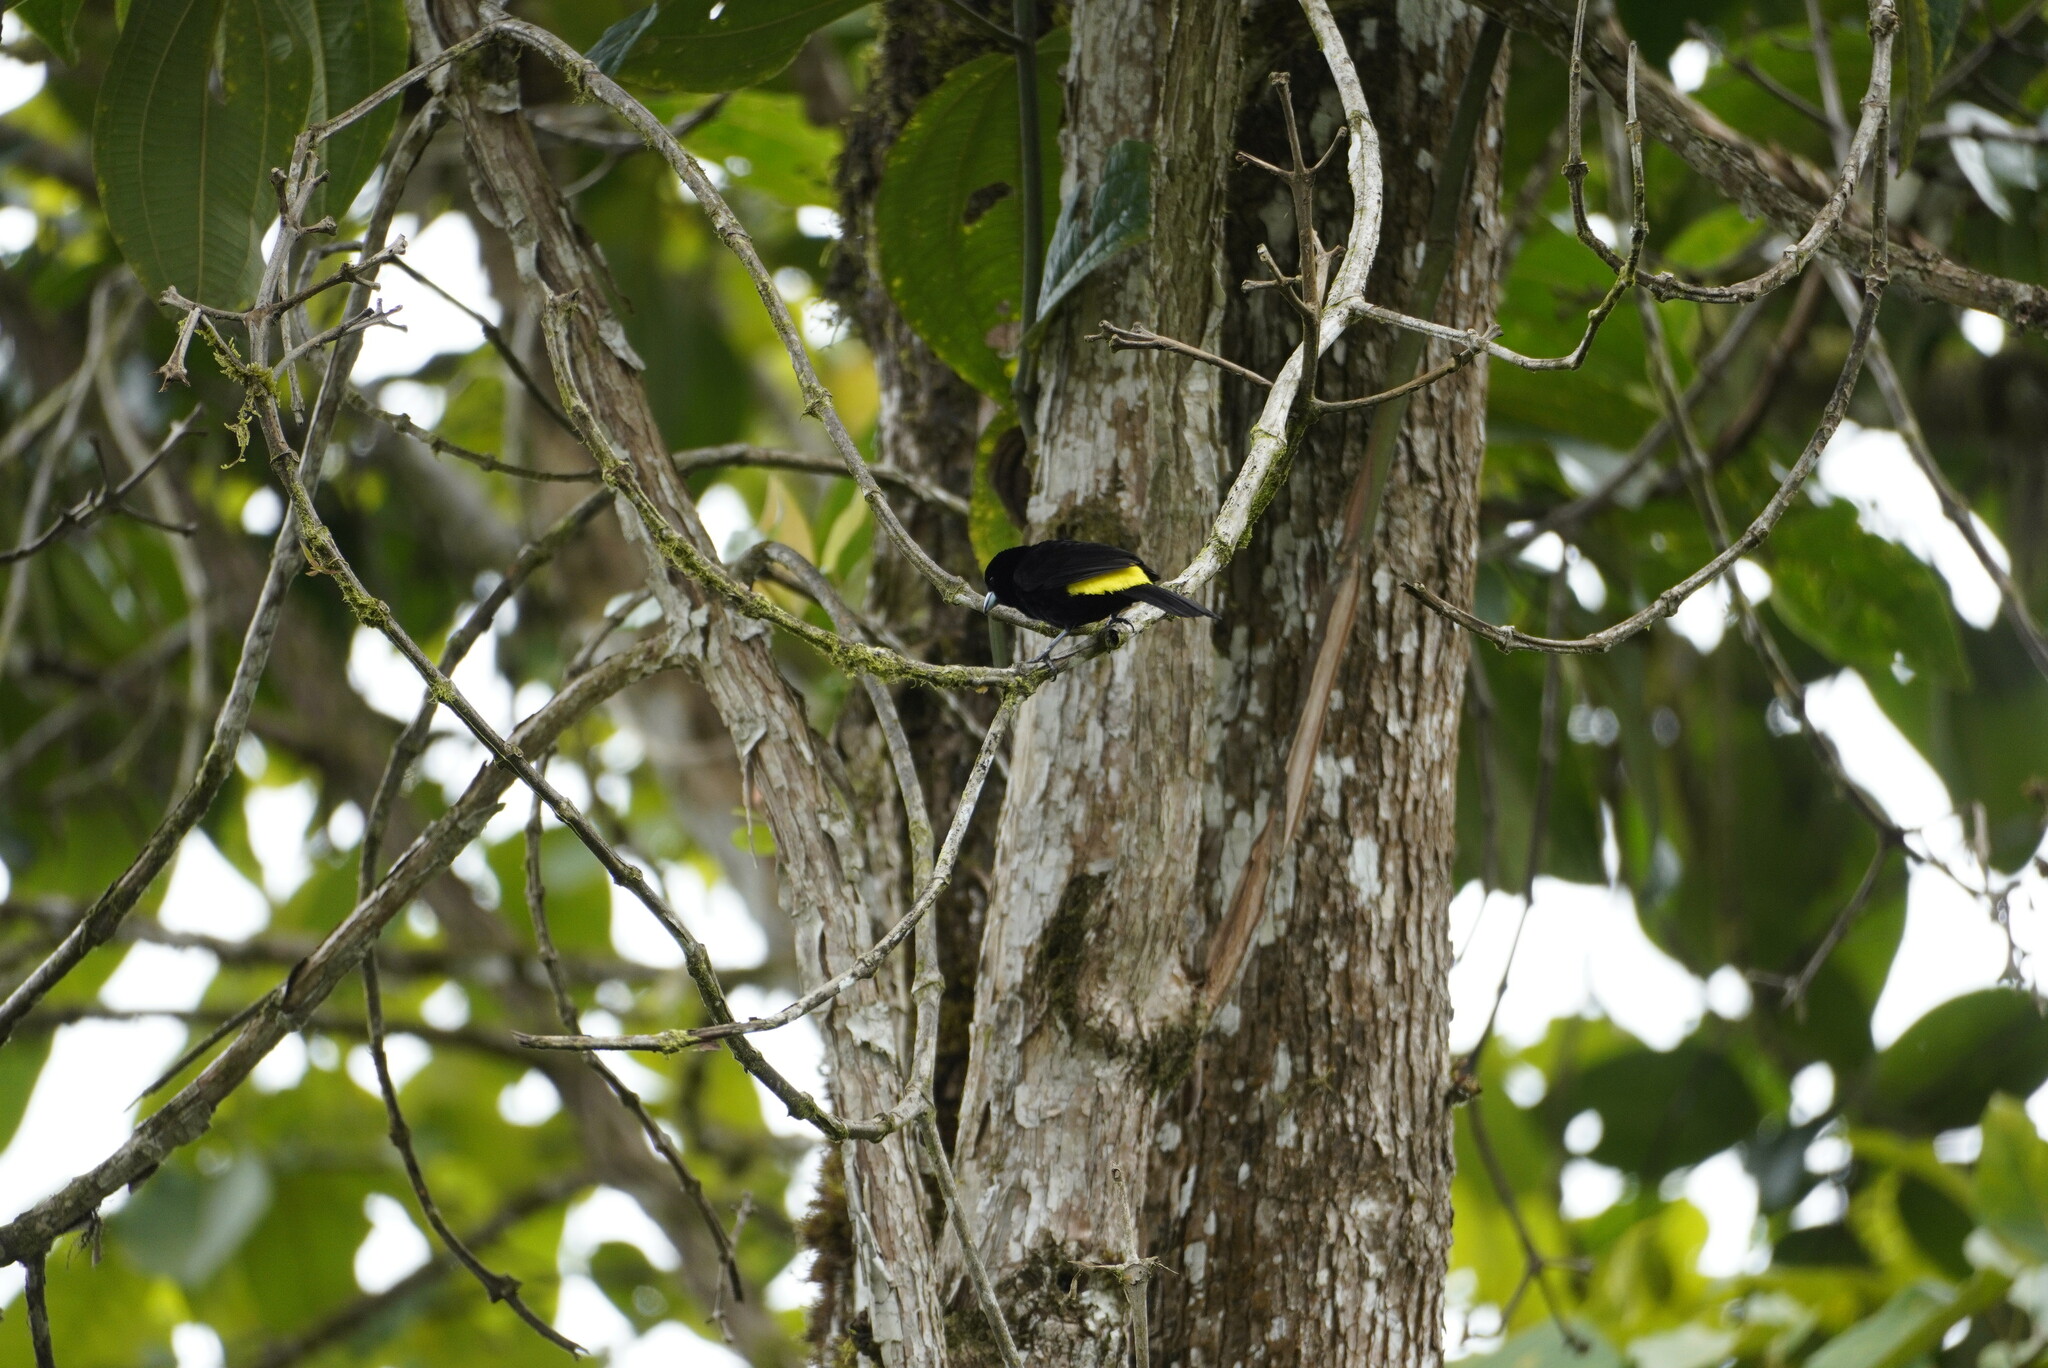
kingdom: Animalia
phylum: Chordata
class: Aves
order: Passeriformes
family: Thraupidae
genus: Ramphocelus
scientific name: Ramphocelus icteronotus
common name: Lemon-rumped tanager
